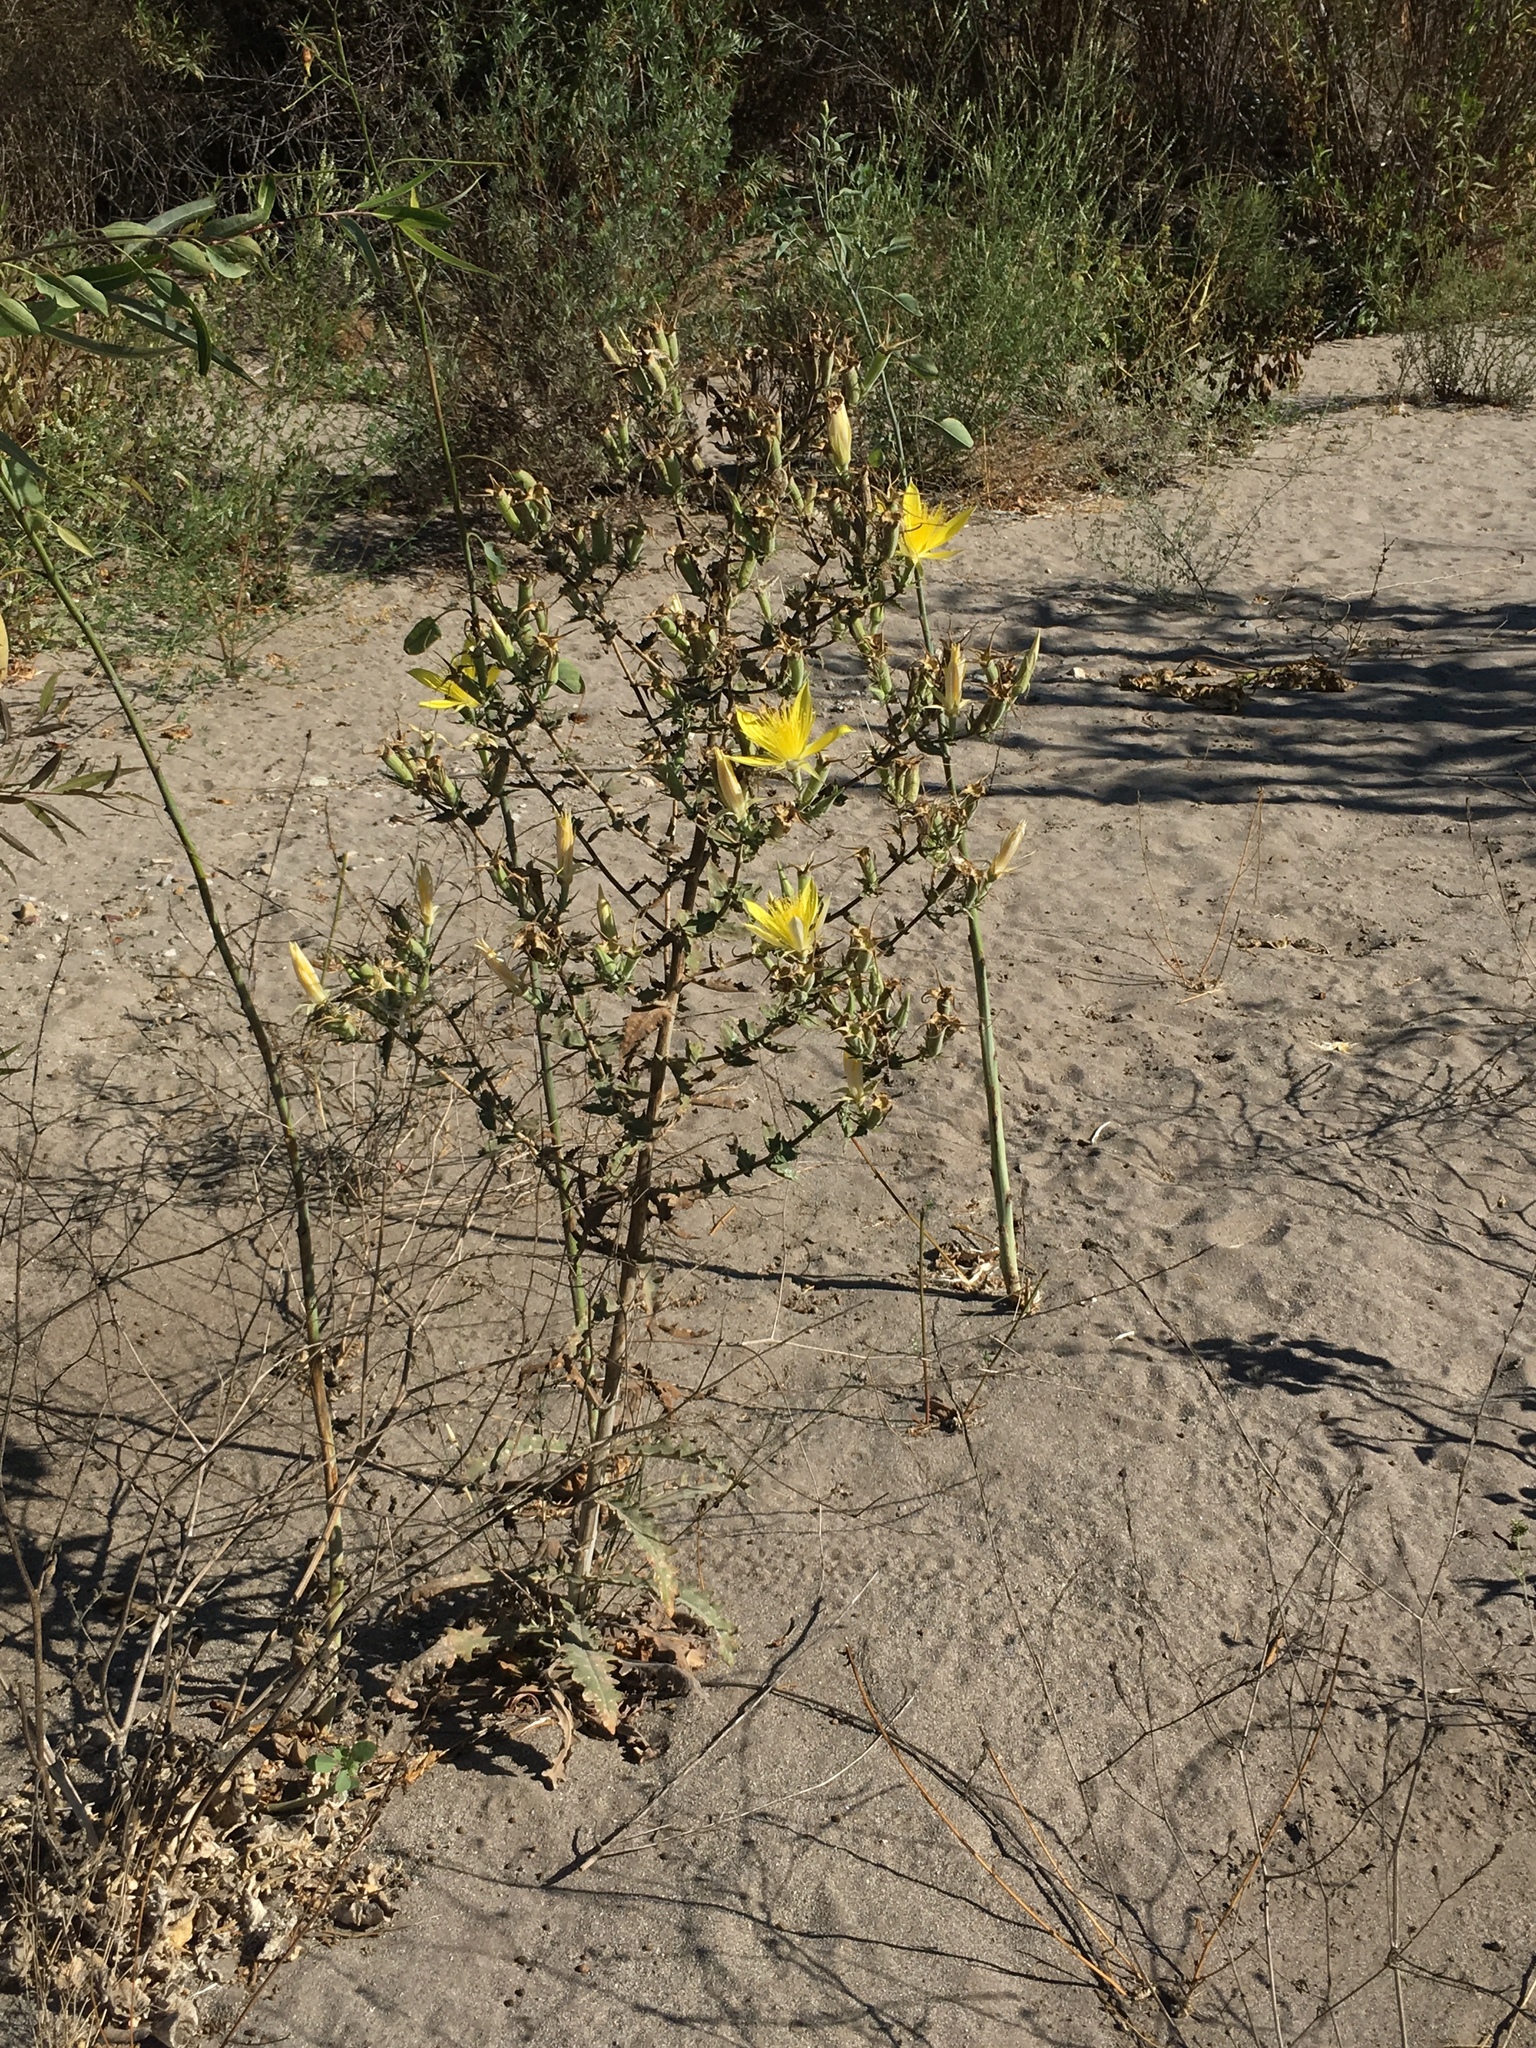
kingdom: Plantae
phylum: Tracheophyta
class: Magnoliopsida
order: Cornales
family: Loasaceae
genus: Mentzelia
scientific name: Mentzelia laevicaulis
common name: Smooth-stem blazingstar
